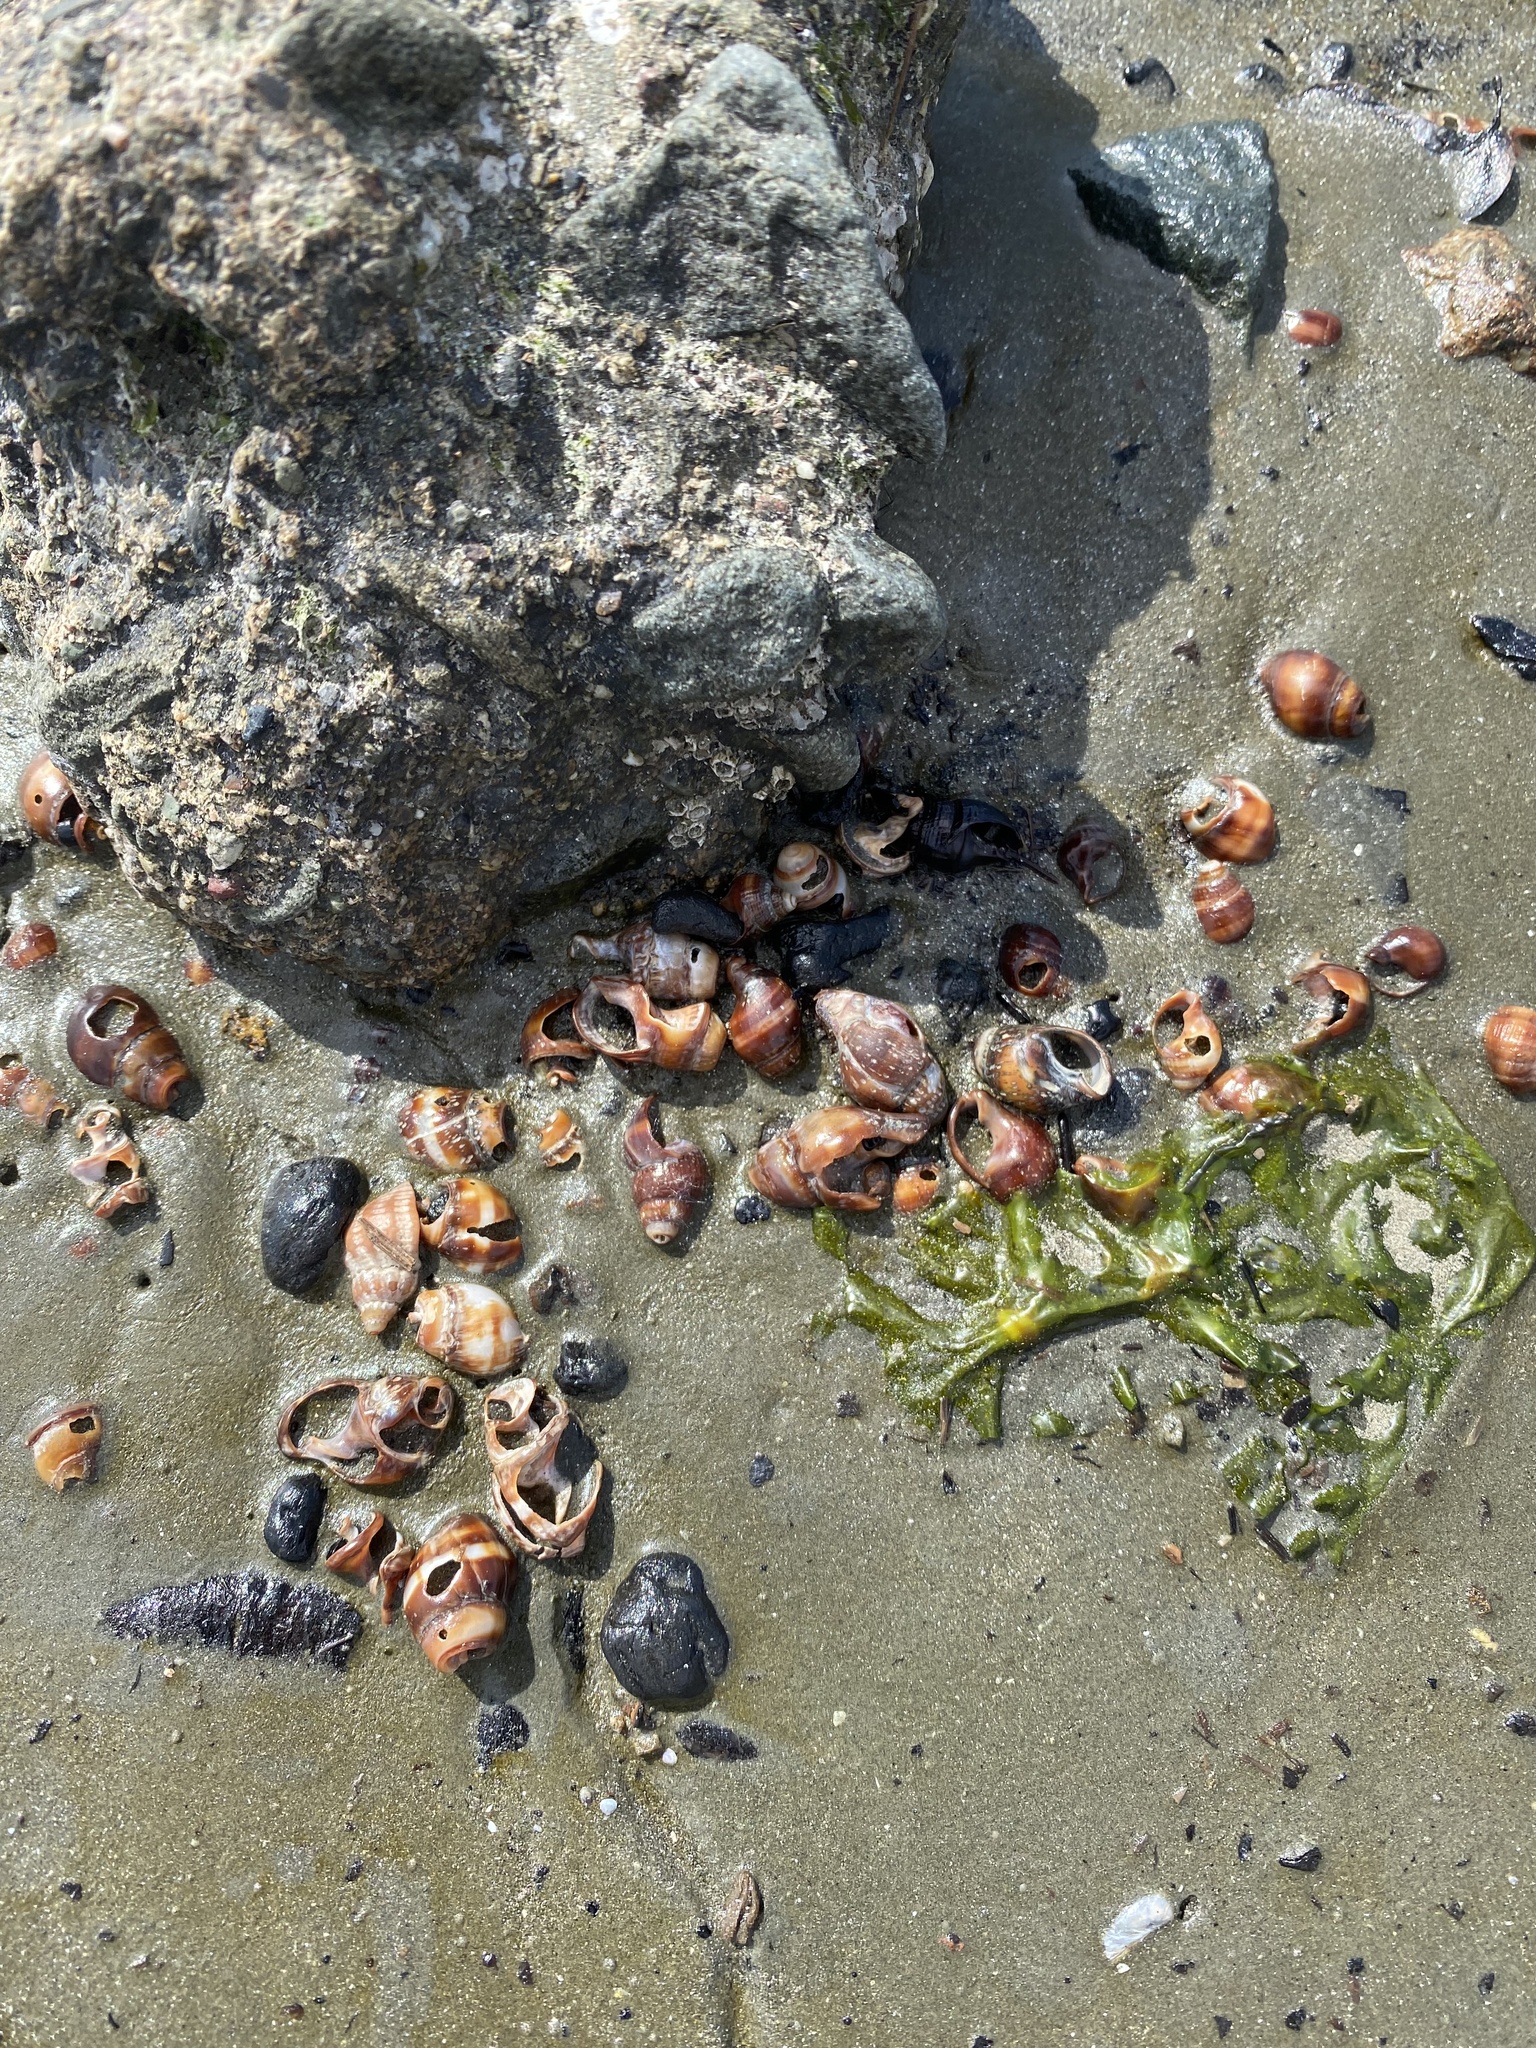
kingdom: Animalia
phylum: Mollusca
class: Gastropoda
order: Neogastropoda
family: Nassariidae
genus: Ilyanassa
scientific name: Ilyanassa obsoleta
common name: Eastern mudsnail
